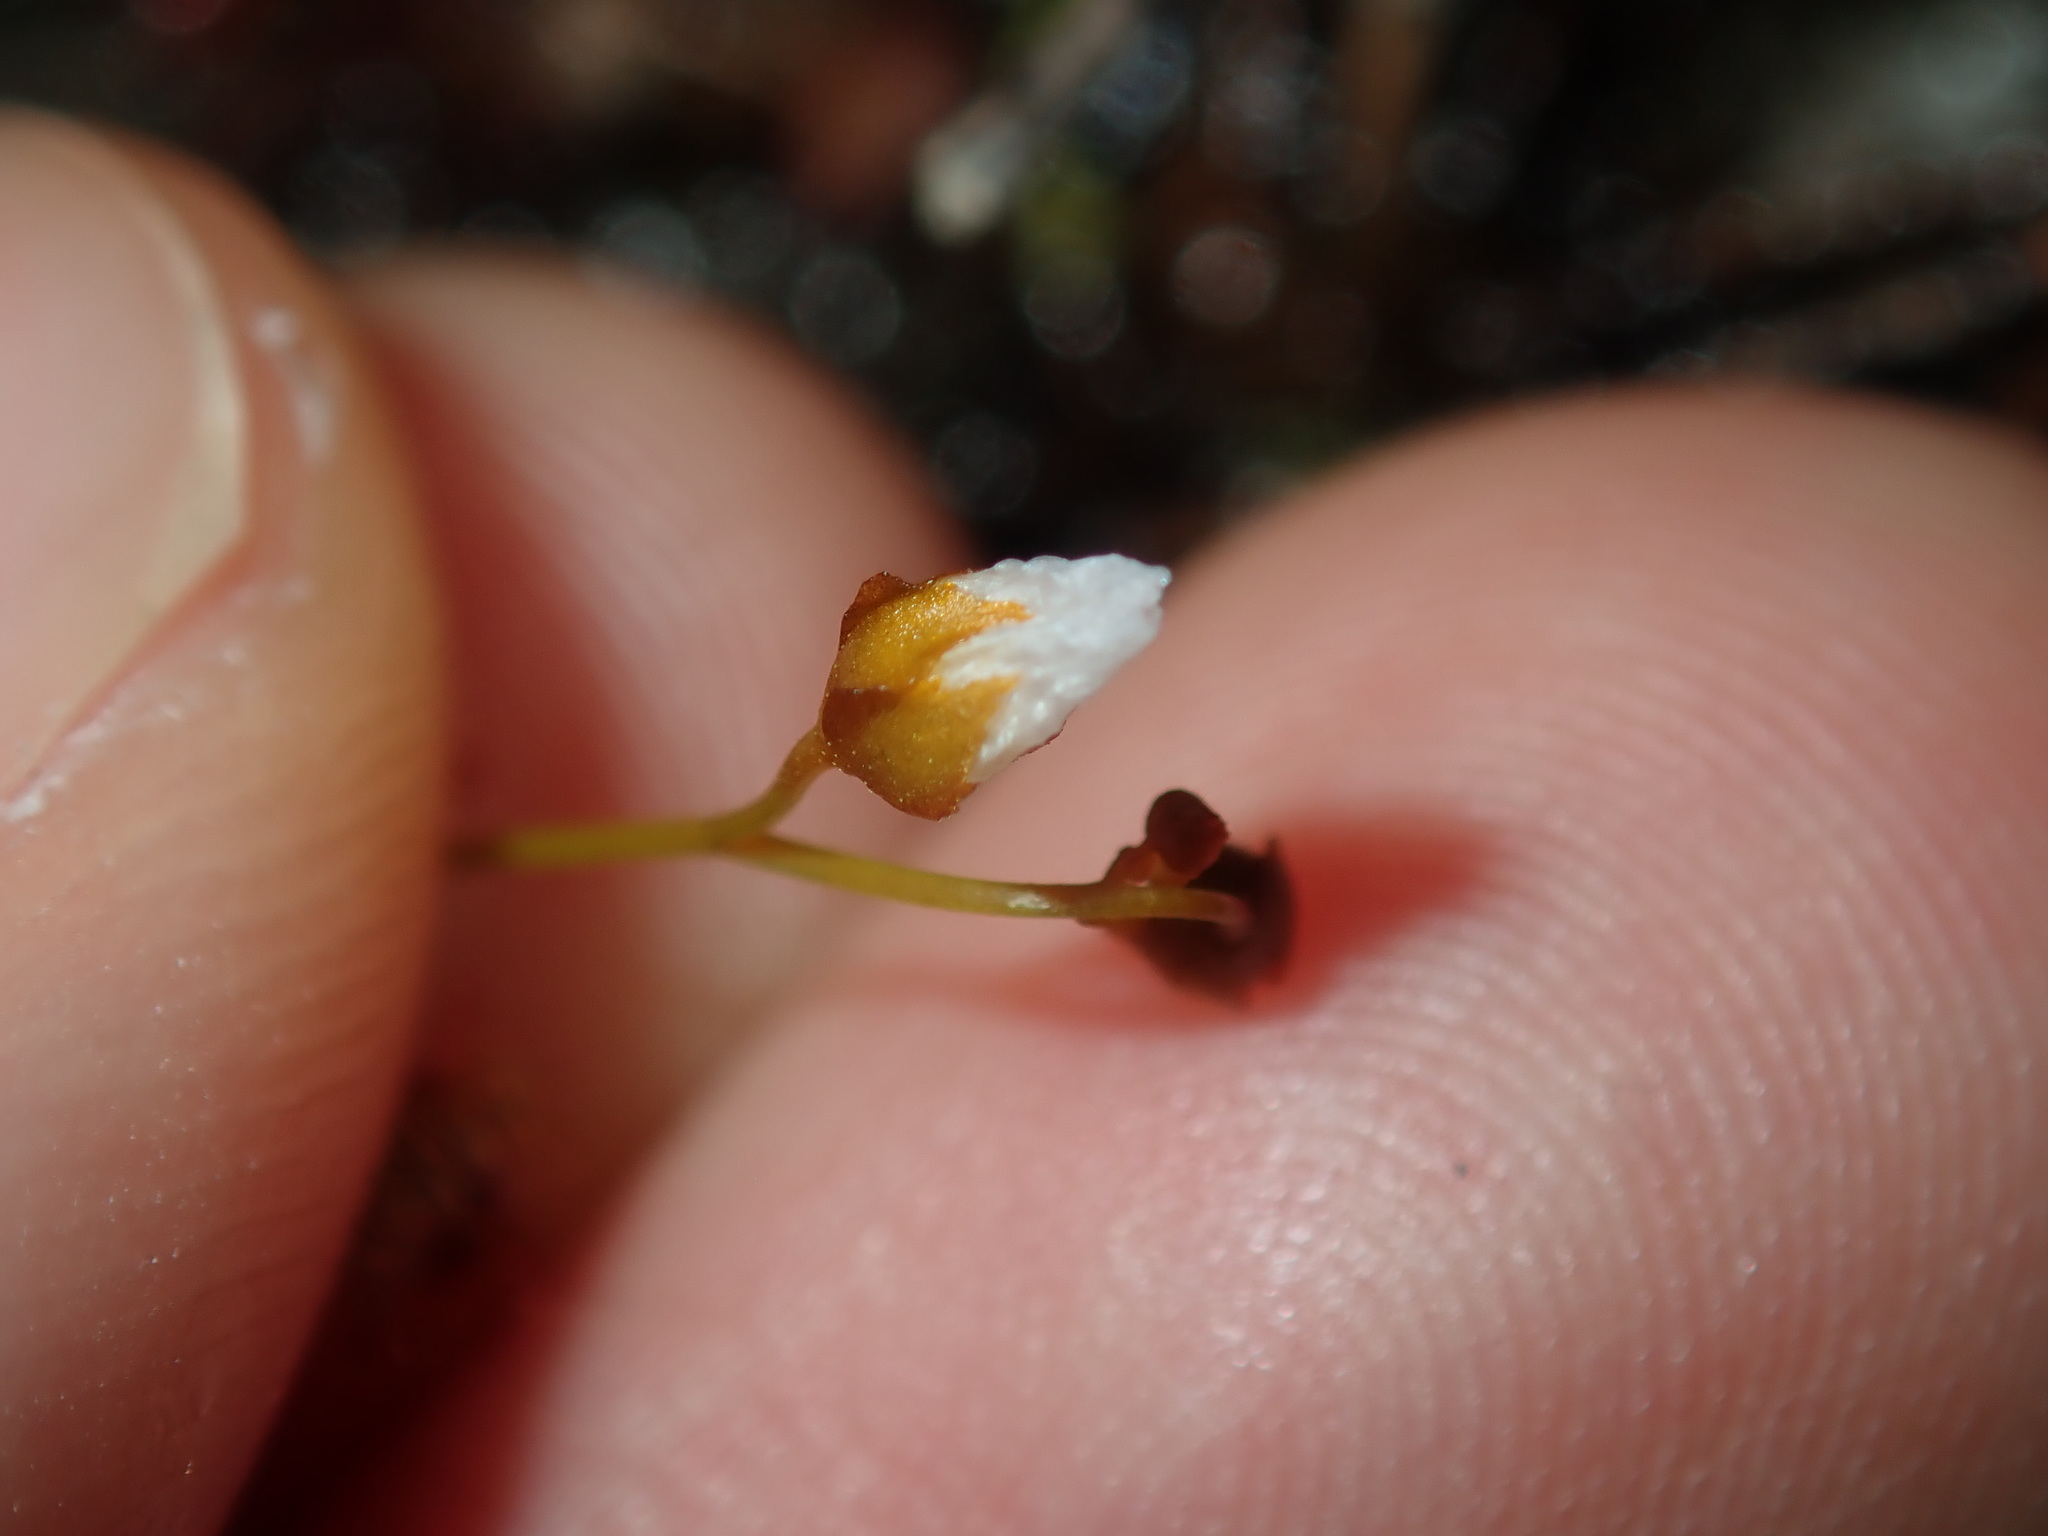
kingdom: Plantae
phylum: Tracheophyta
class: Magnoliopsida
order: Caryophyllales
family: Droseraceae
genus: Drosera
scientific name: Drosera peltata
